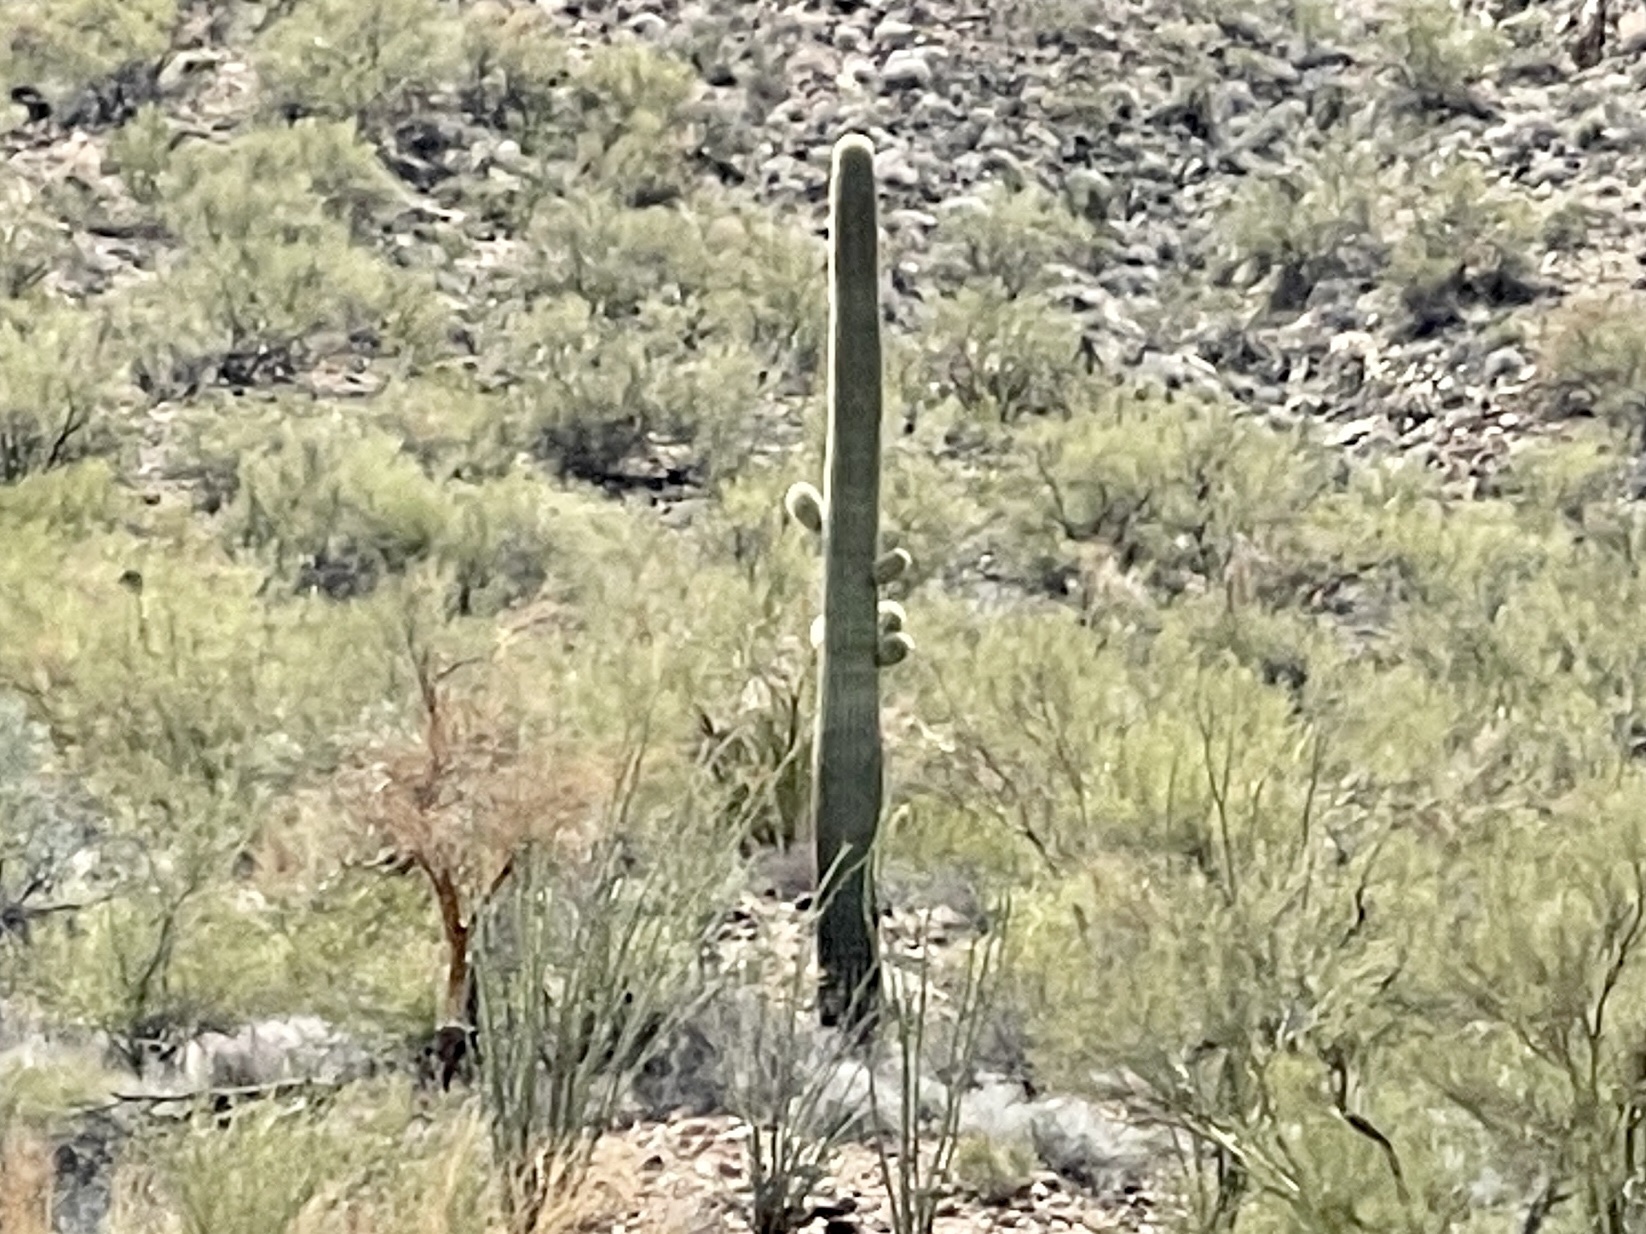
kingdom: Plantae
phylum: Tracheophyta
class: Magnoliopsida
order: Caryophyllales
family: Cactaceae
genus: Carnegiea
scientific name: Carnegiea gigantea
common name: Saguaro
